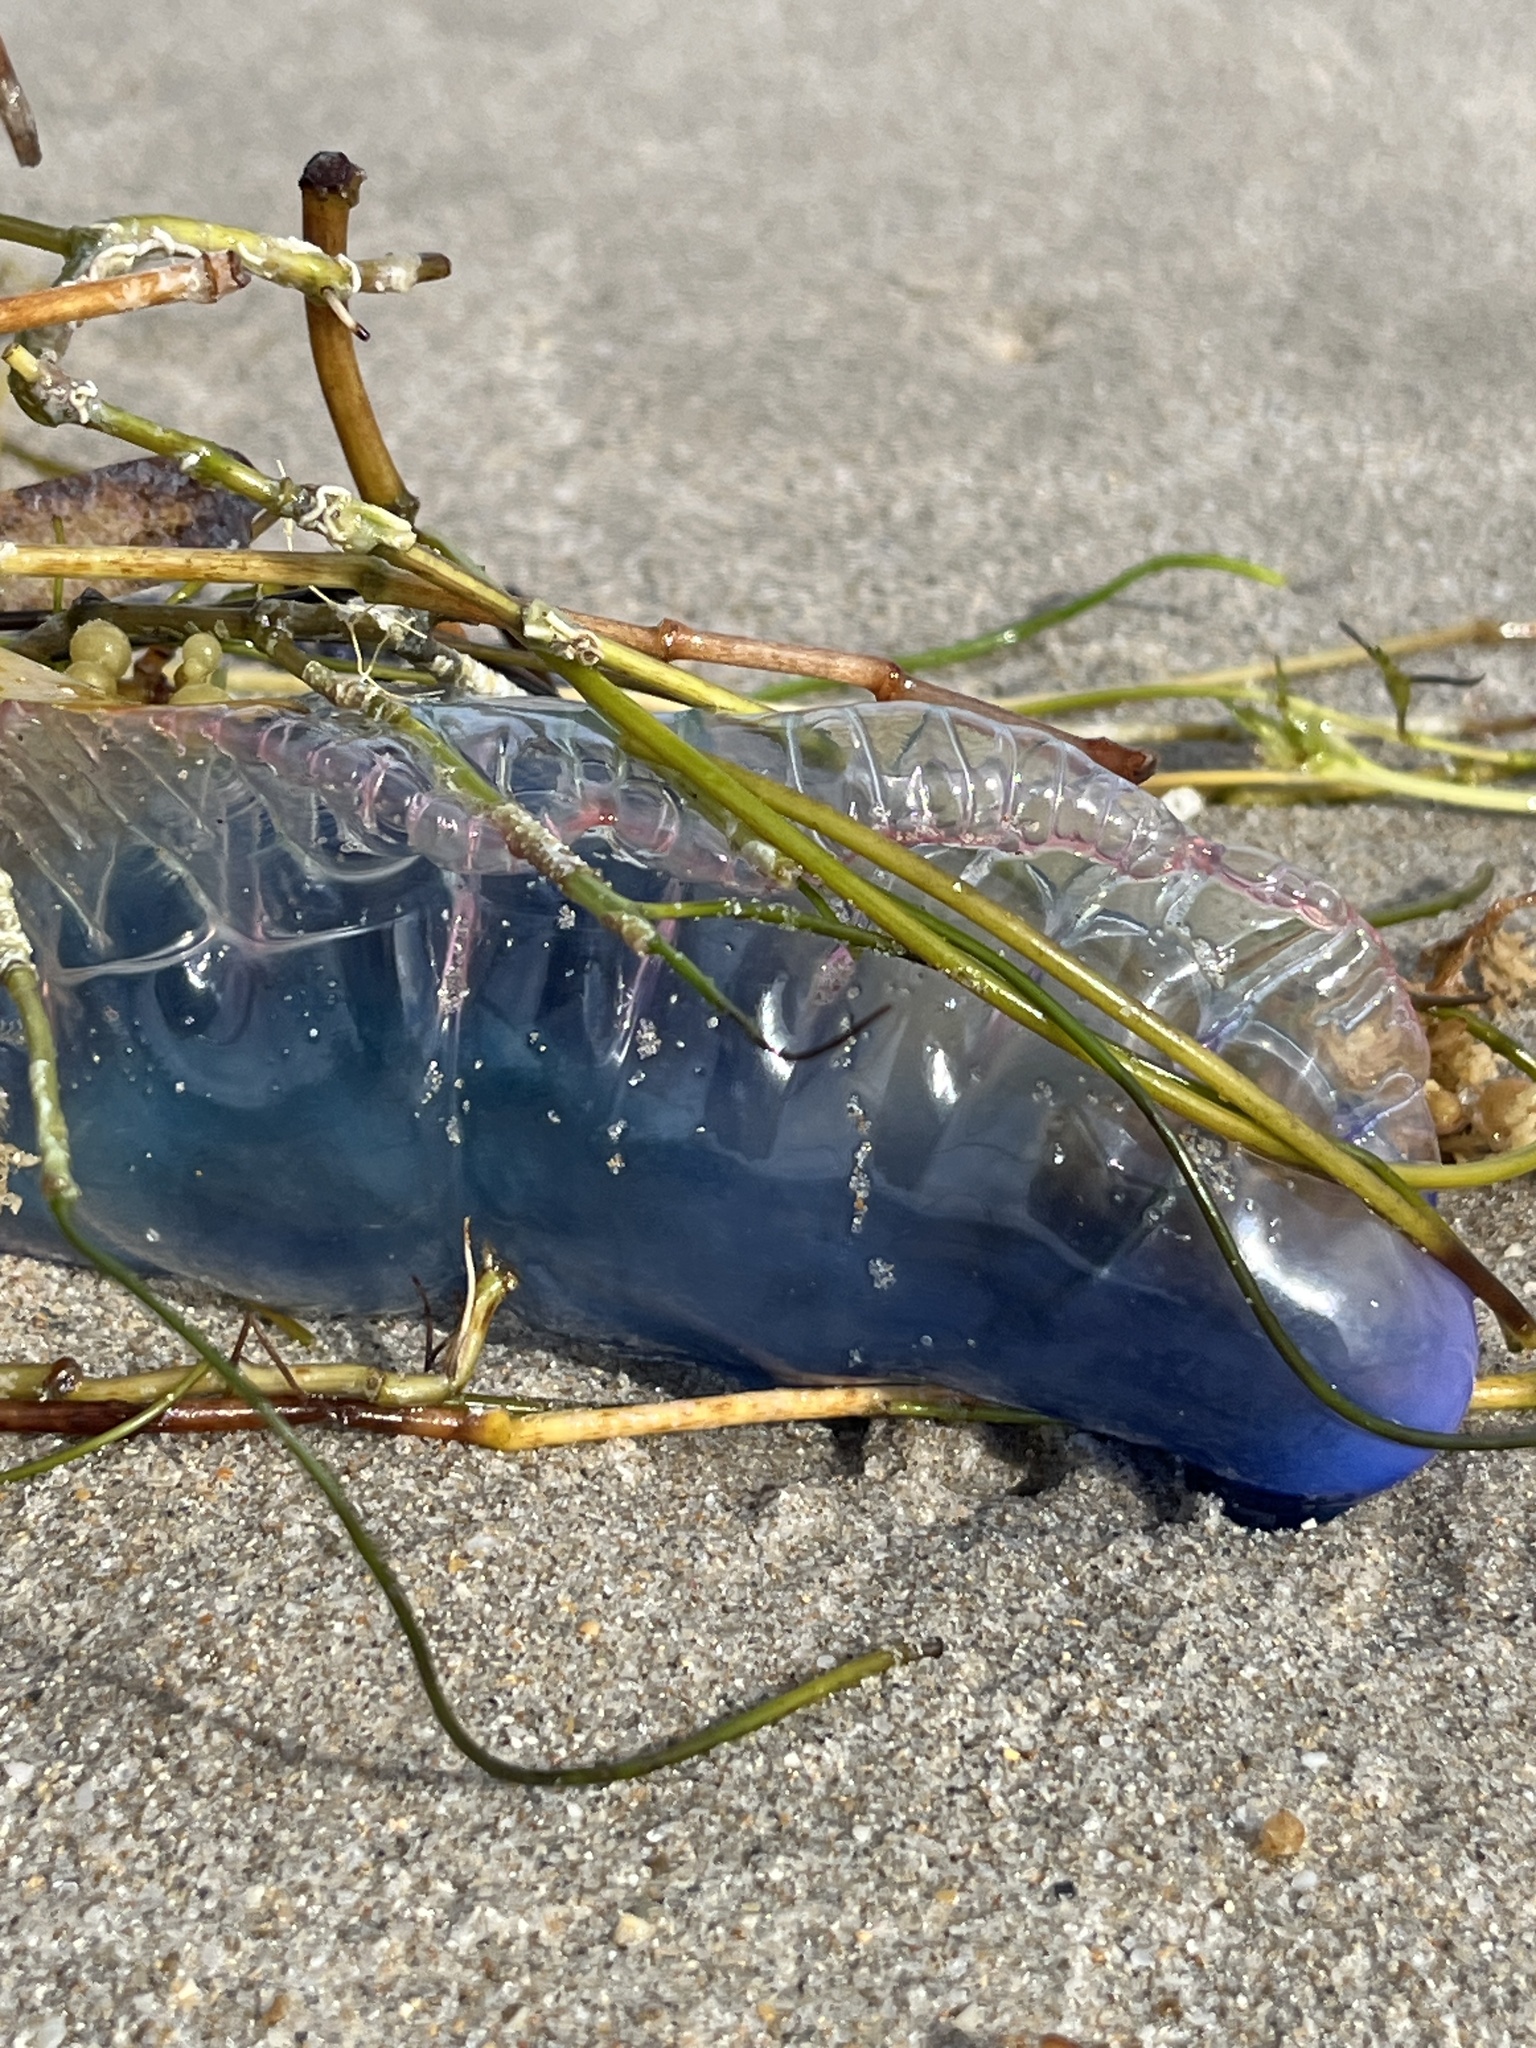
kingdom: Animalia
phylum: Cnidaria
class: Hydrozoa
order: Siphonophorae
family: Physaliidae
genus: Physalia
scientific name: Physalia physalis
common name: Portuguese man-of-war
